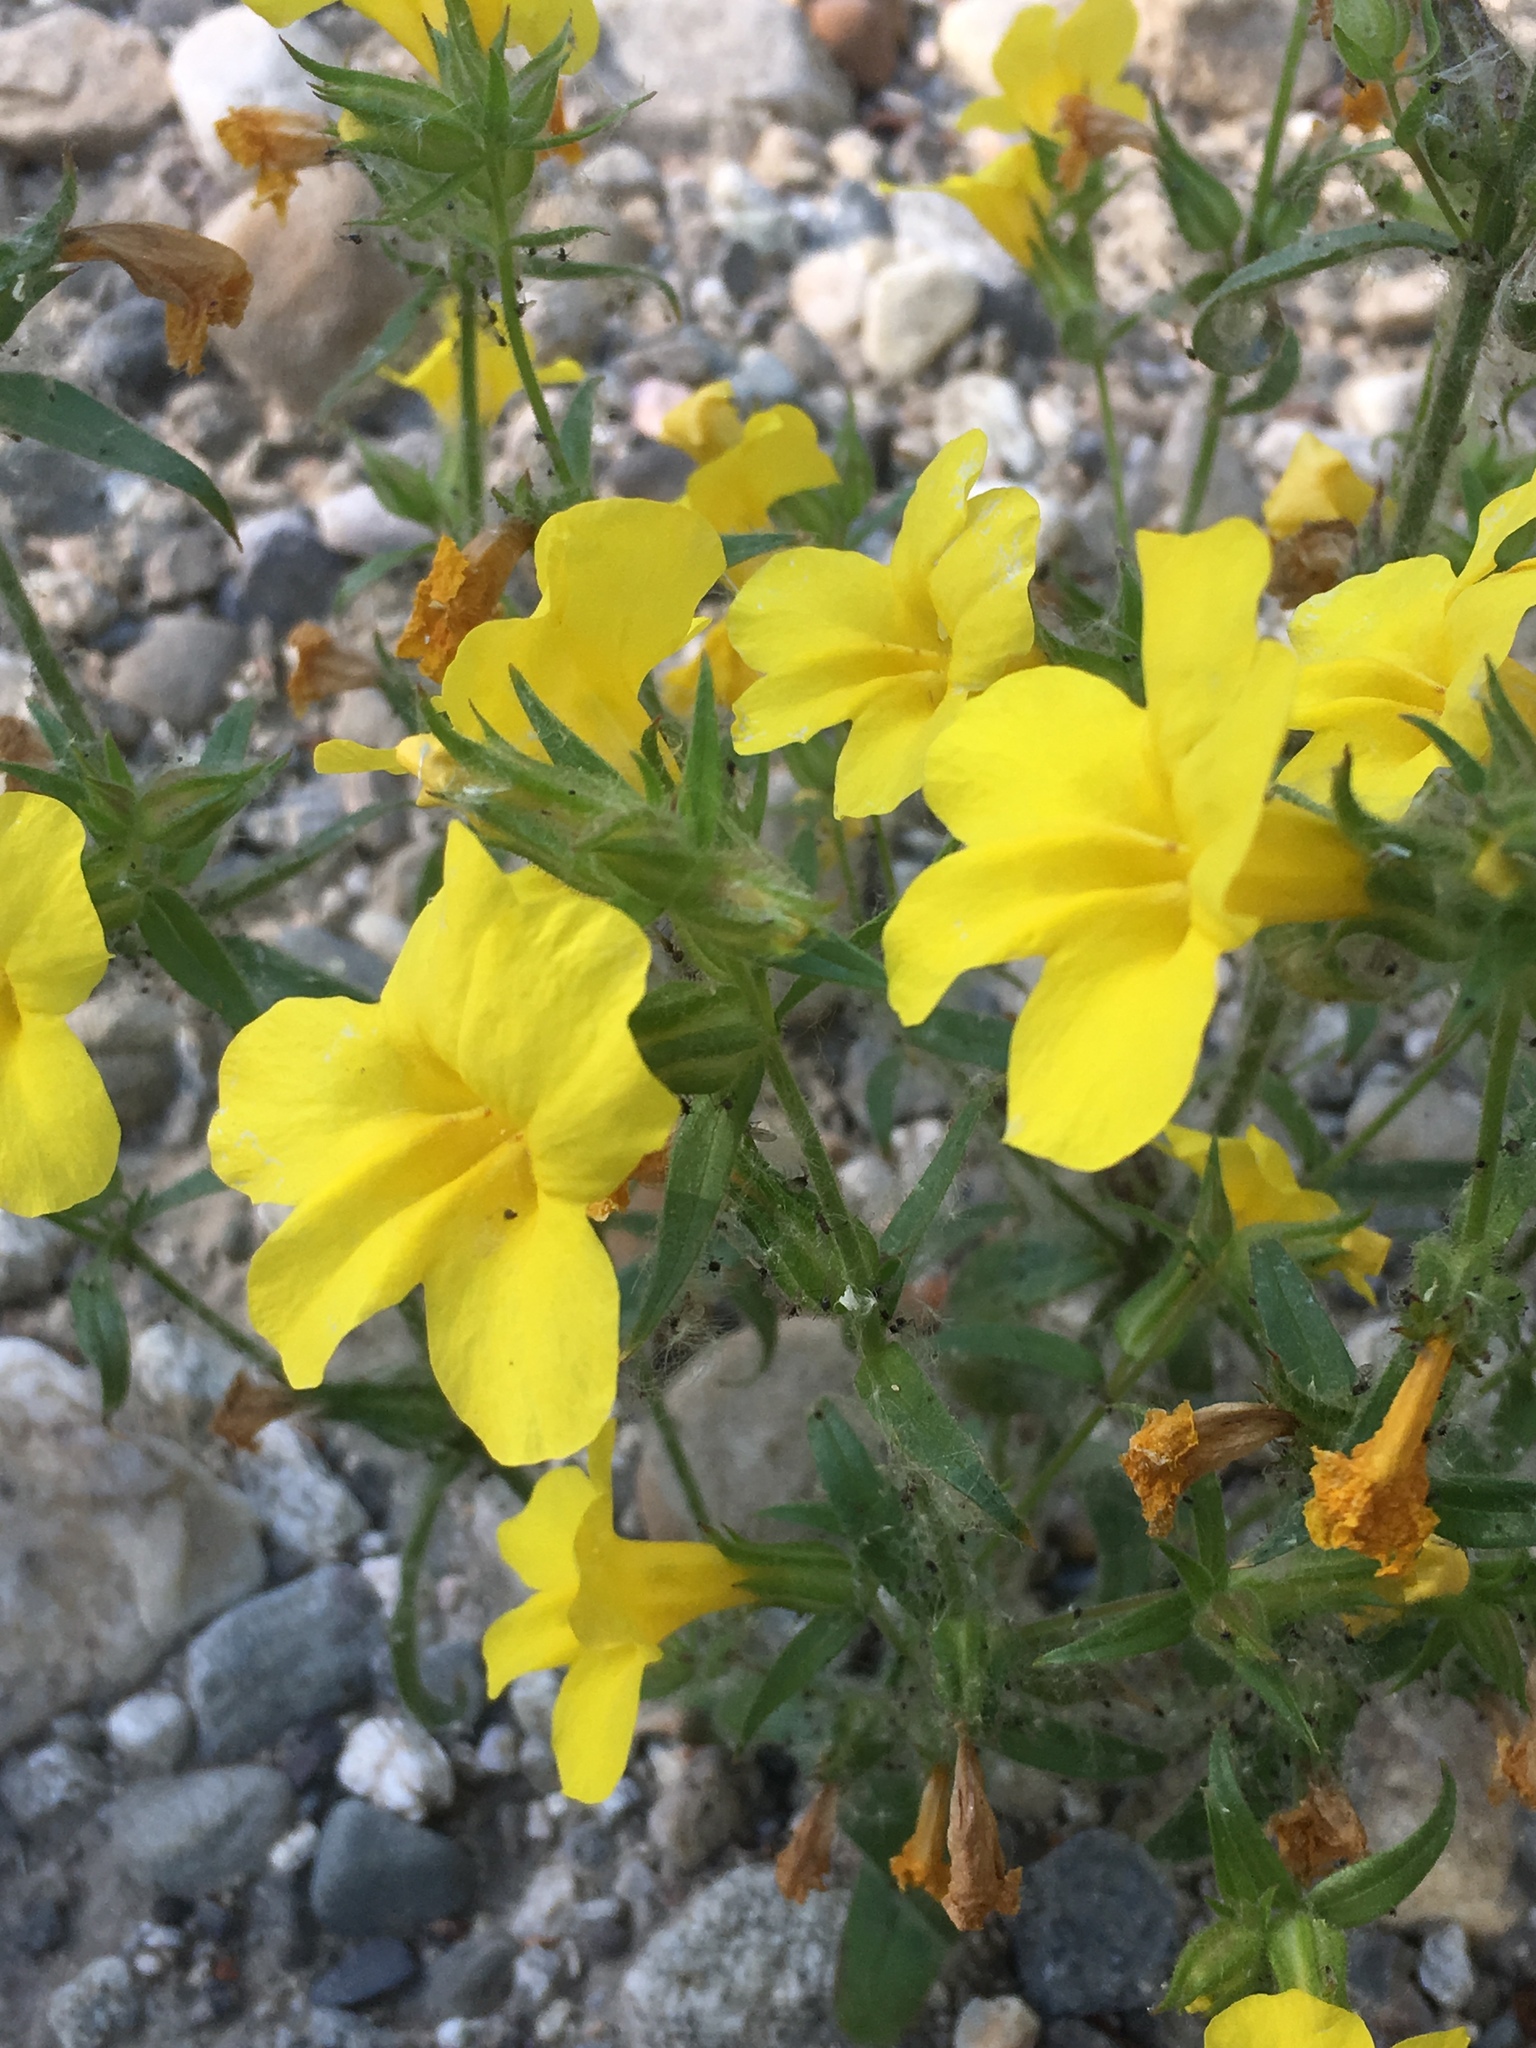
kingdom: Plantae
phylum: Tracheophyta
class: Magnoliopsida
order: Lamiales
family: Phrymaceae
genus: Diplacus
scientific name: Diplacus brevipes
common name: Wide-throat yellow monkey-flower
